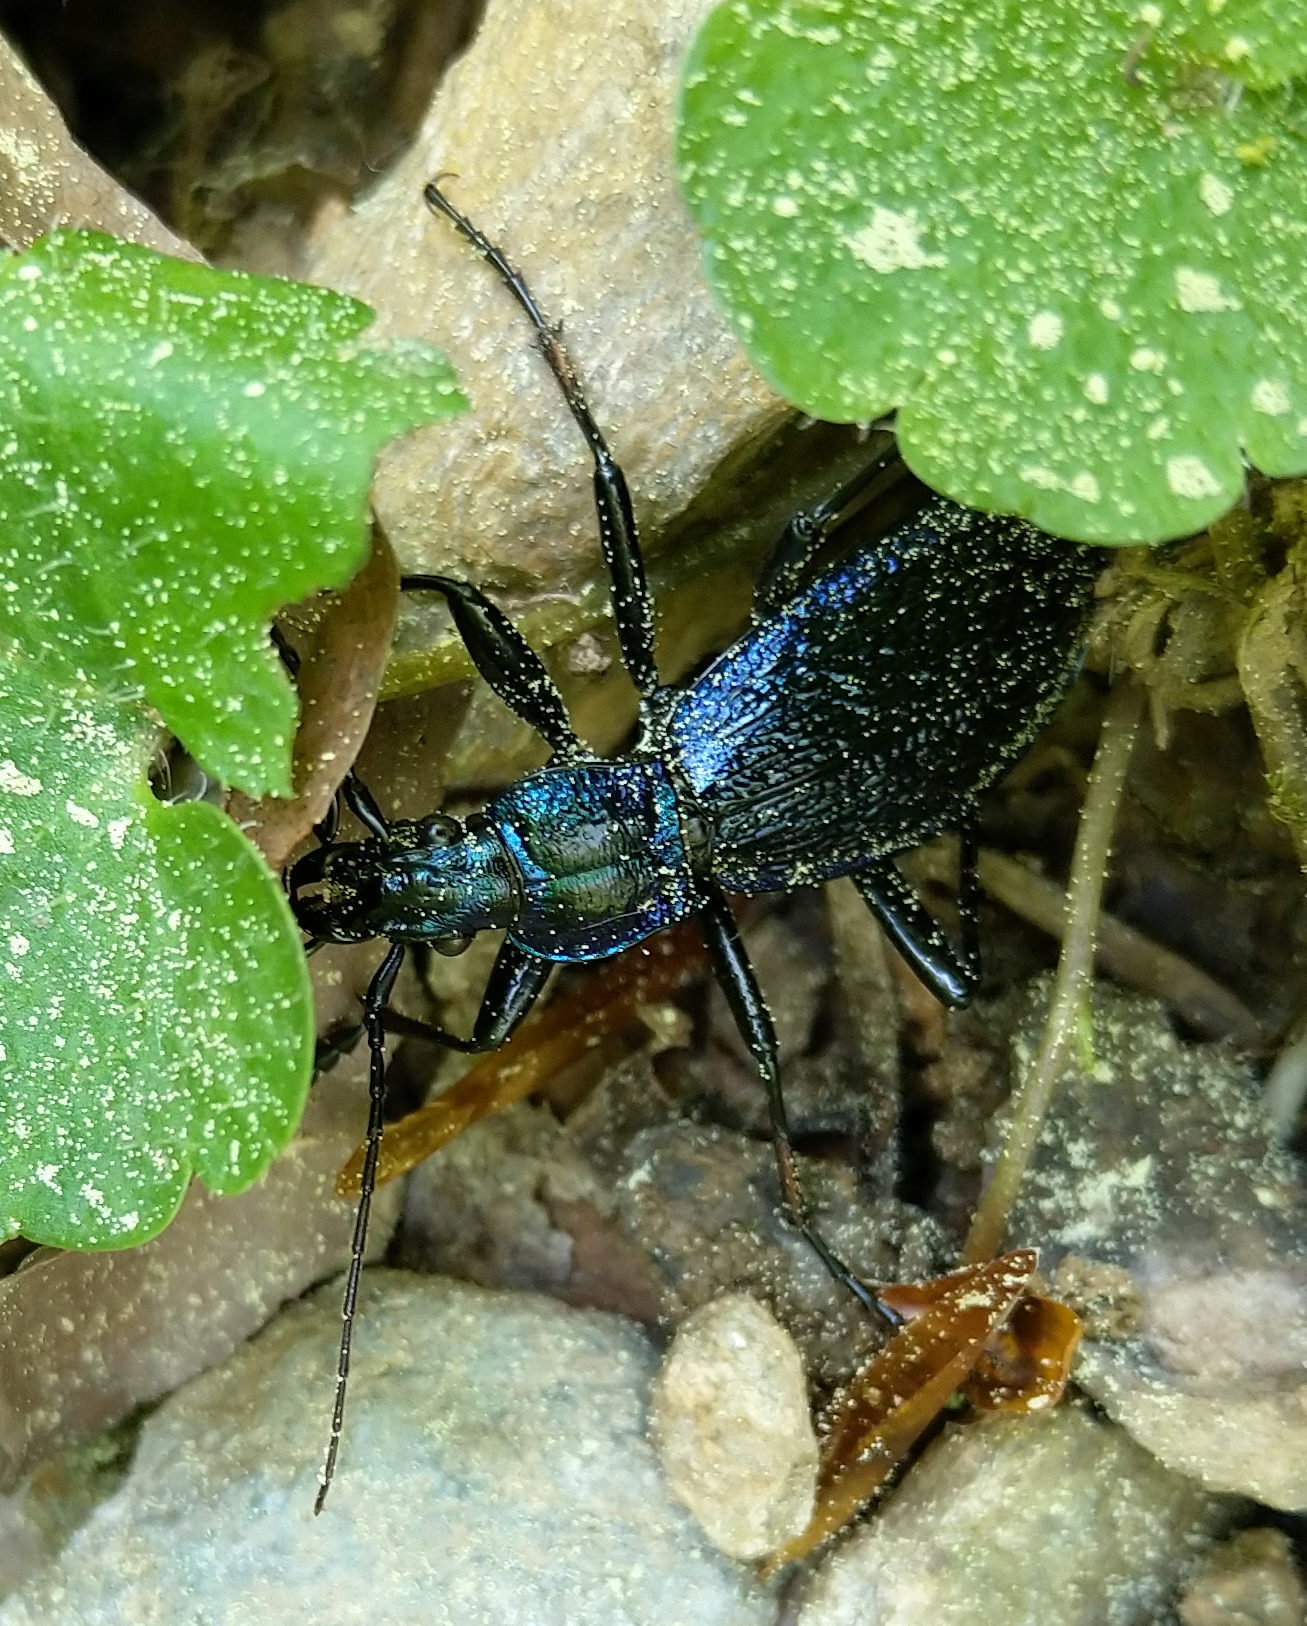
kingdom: Animalia
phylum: Arthropoda
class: Insecta
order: Coleoptera
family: Carabidae
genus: Carabus
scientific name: Carabus intricatus
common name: Blue ground beetle
